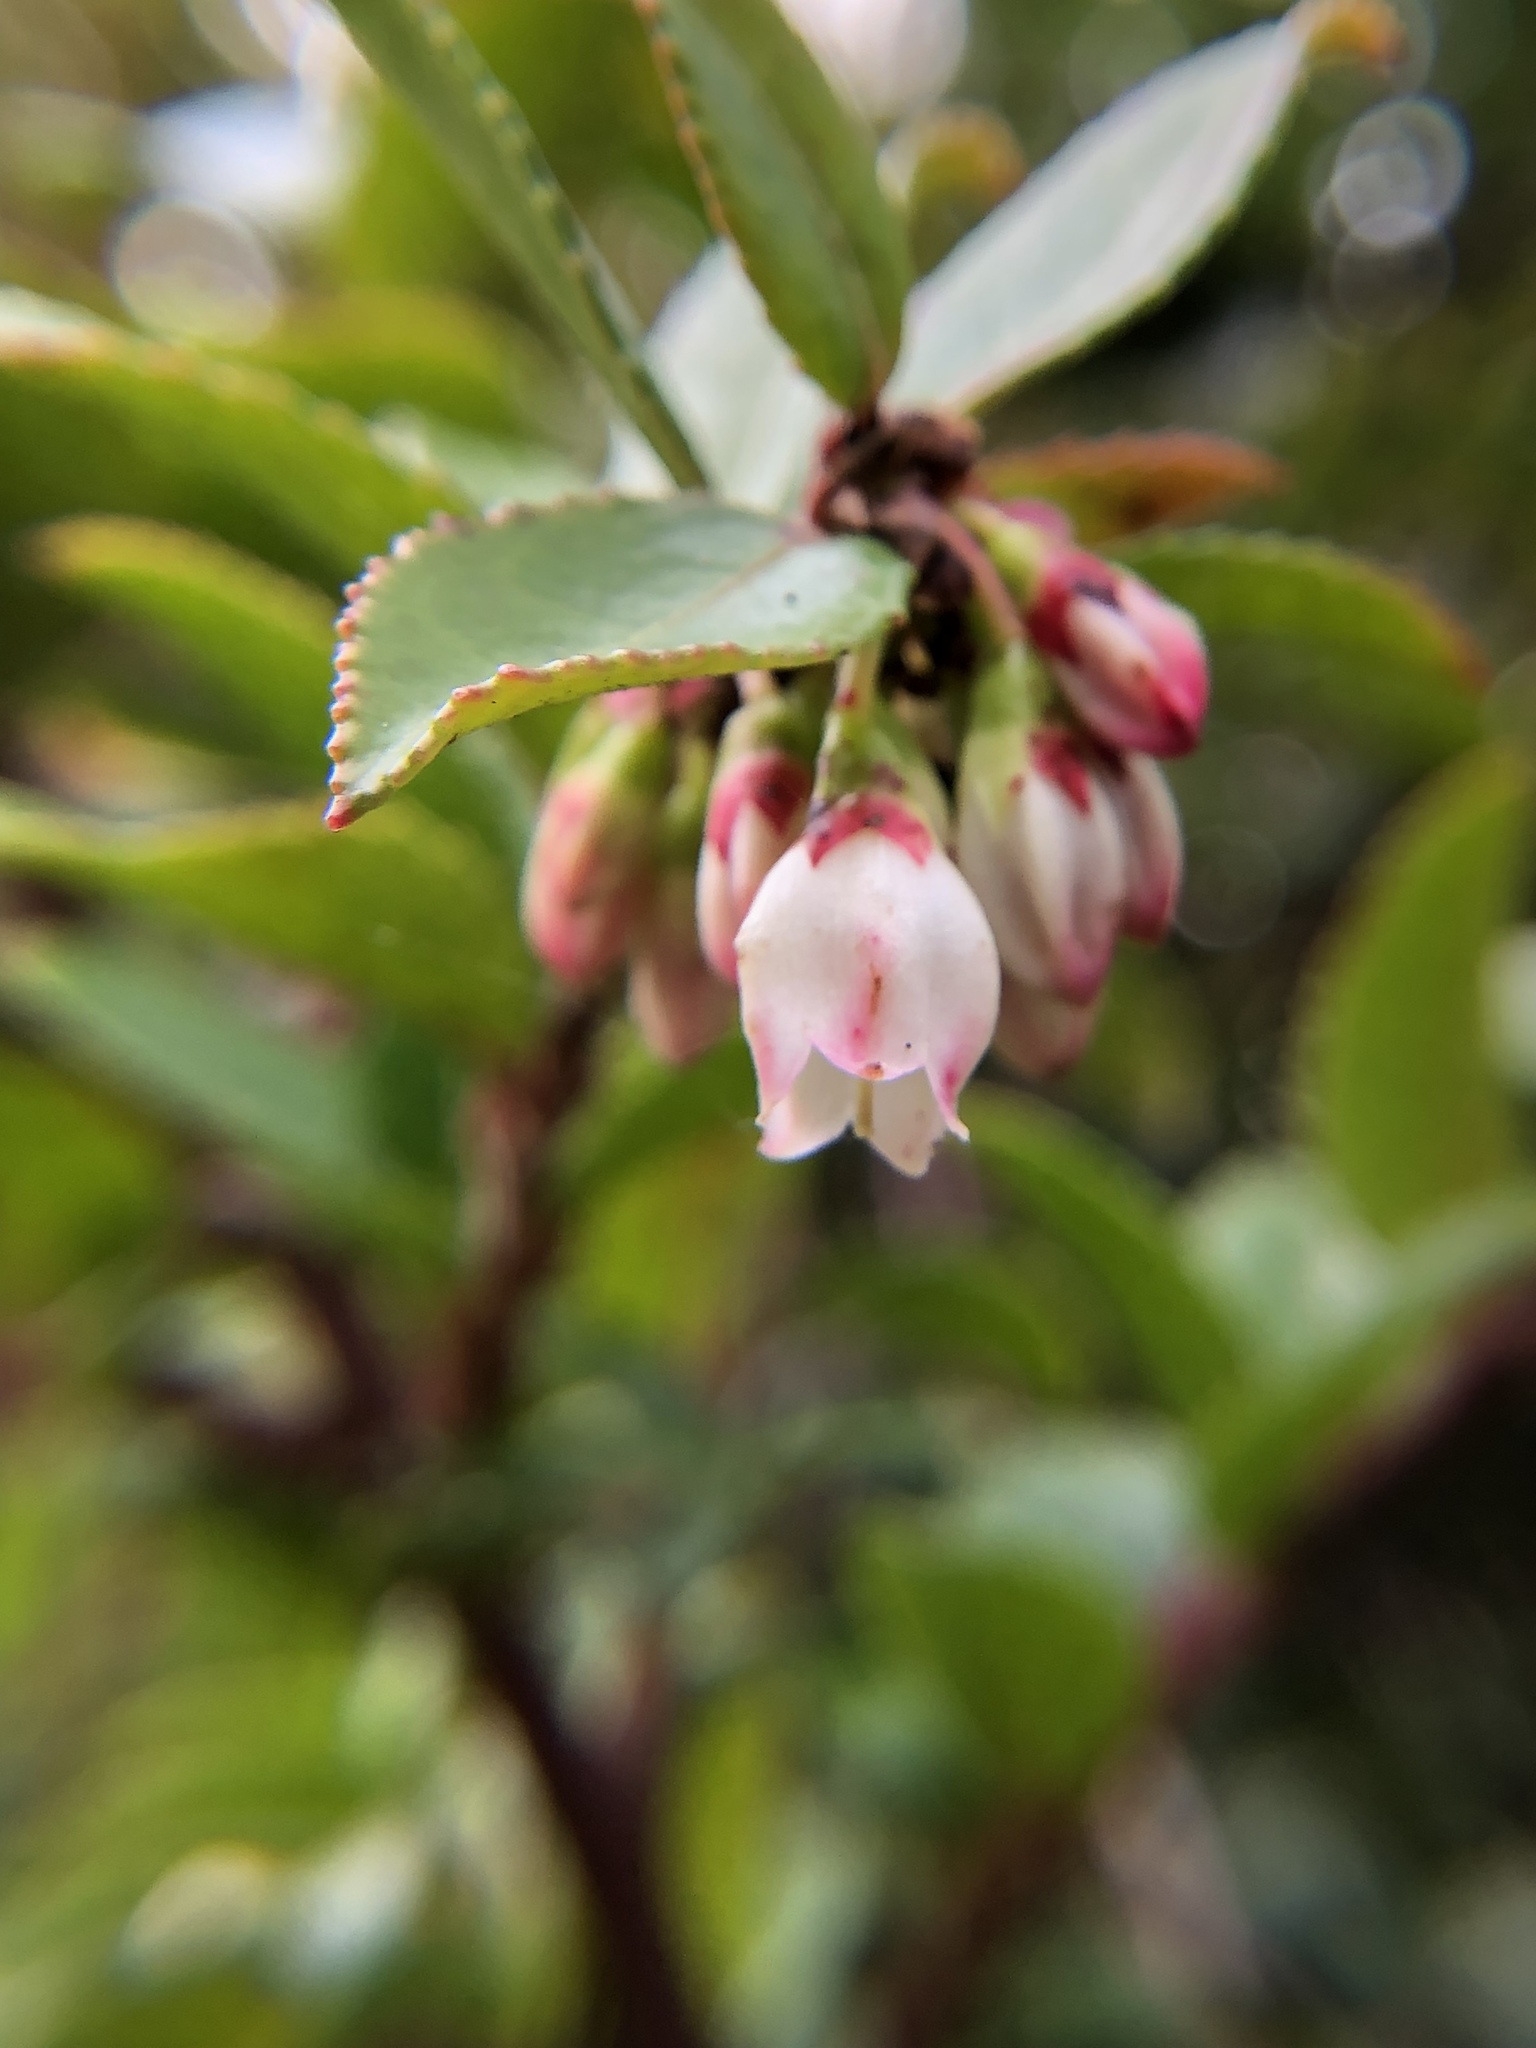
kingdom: Plantae
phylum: Tracheophyta
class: Magnoliopsida
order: Ericales
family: Ericaceae
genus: Vaccinium
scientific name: Vaccinium ovatum
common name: California-huckleberry
